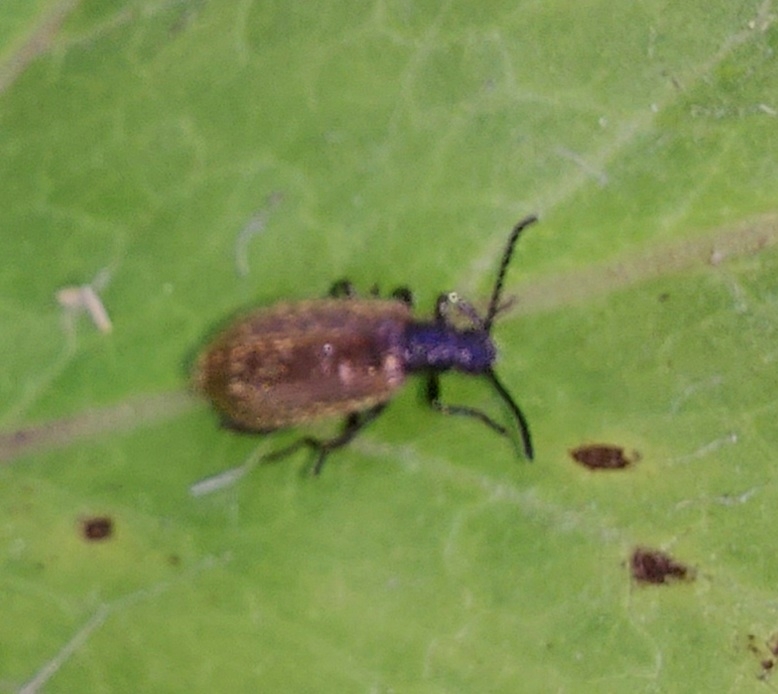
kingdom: Animalia
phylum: Arthropoda
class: Insecta
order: Coleoptera
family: Tenebrionidae
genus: Lagria
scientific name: Lagria hirta
